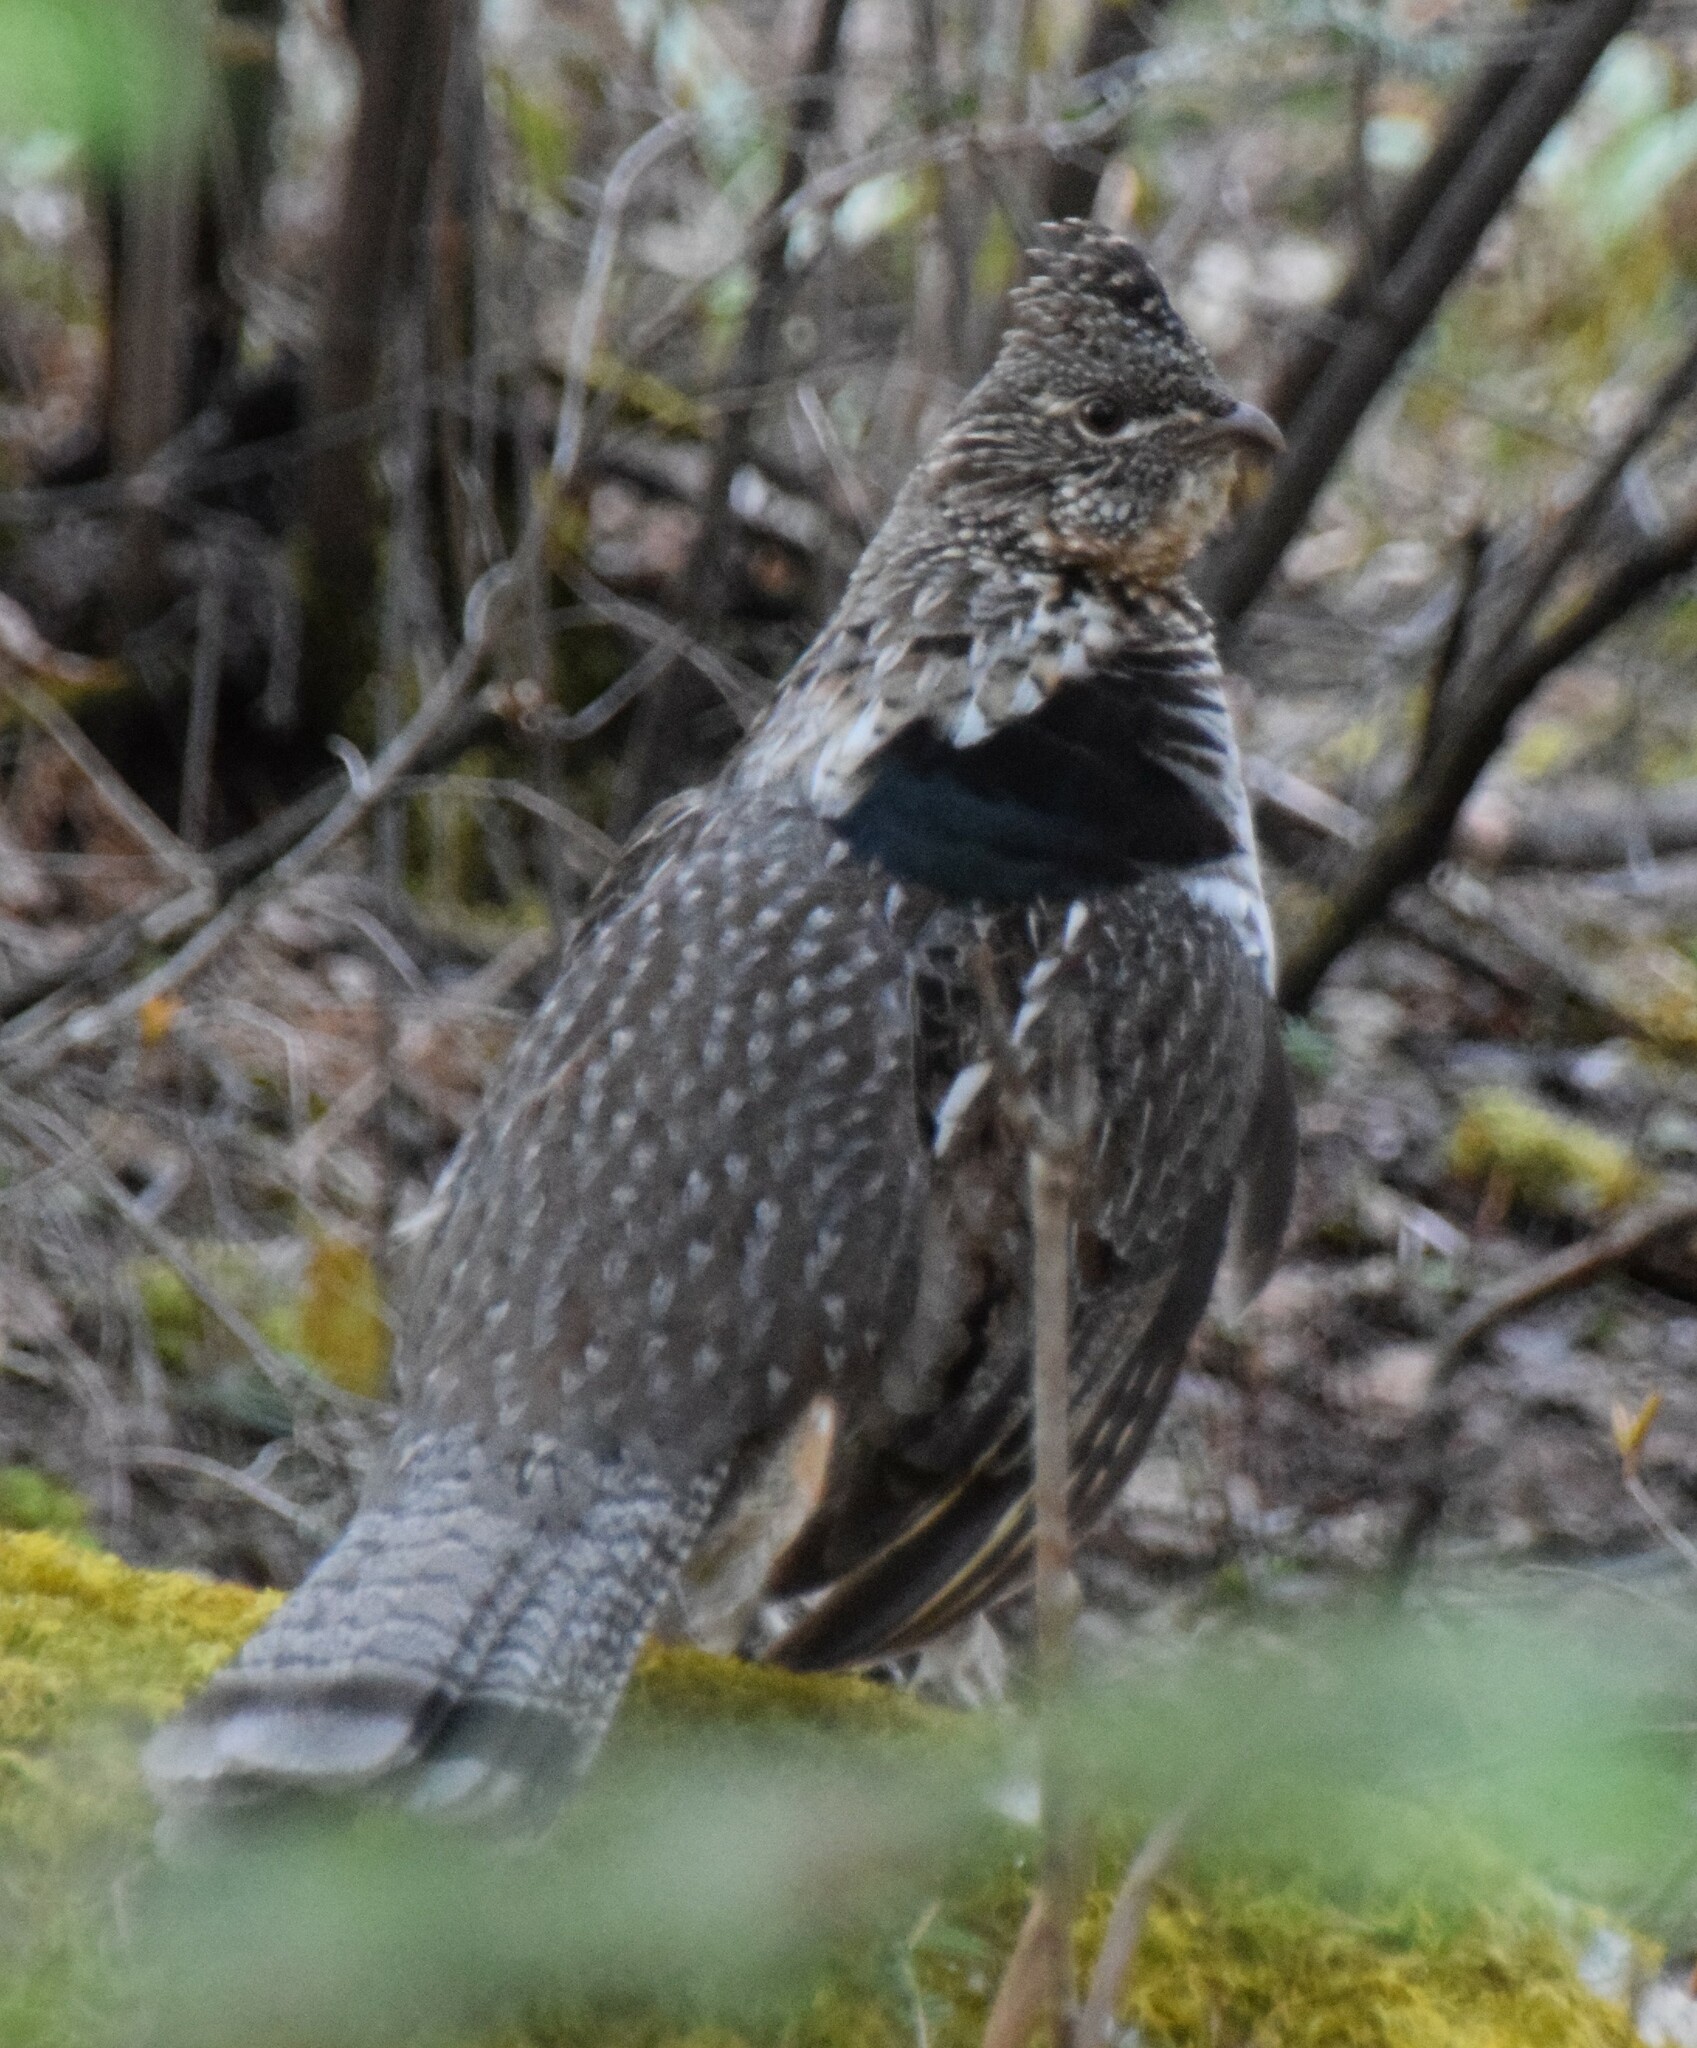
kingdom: Animalia
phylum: Chordata
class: Aves
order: Galliformes
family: Phasianidae
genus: Bonasa
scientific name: Bonasa umbellus
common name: Ruffed grouse
